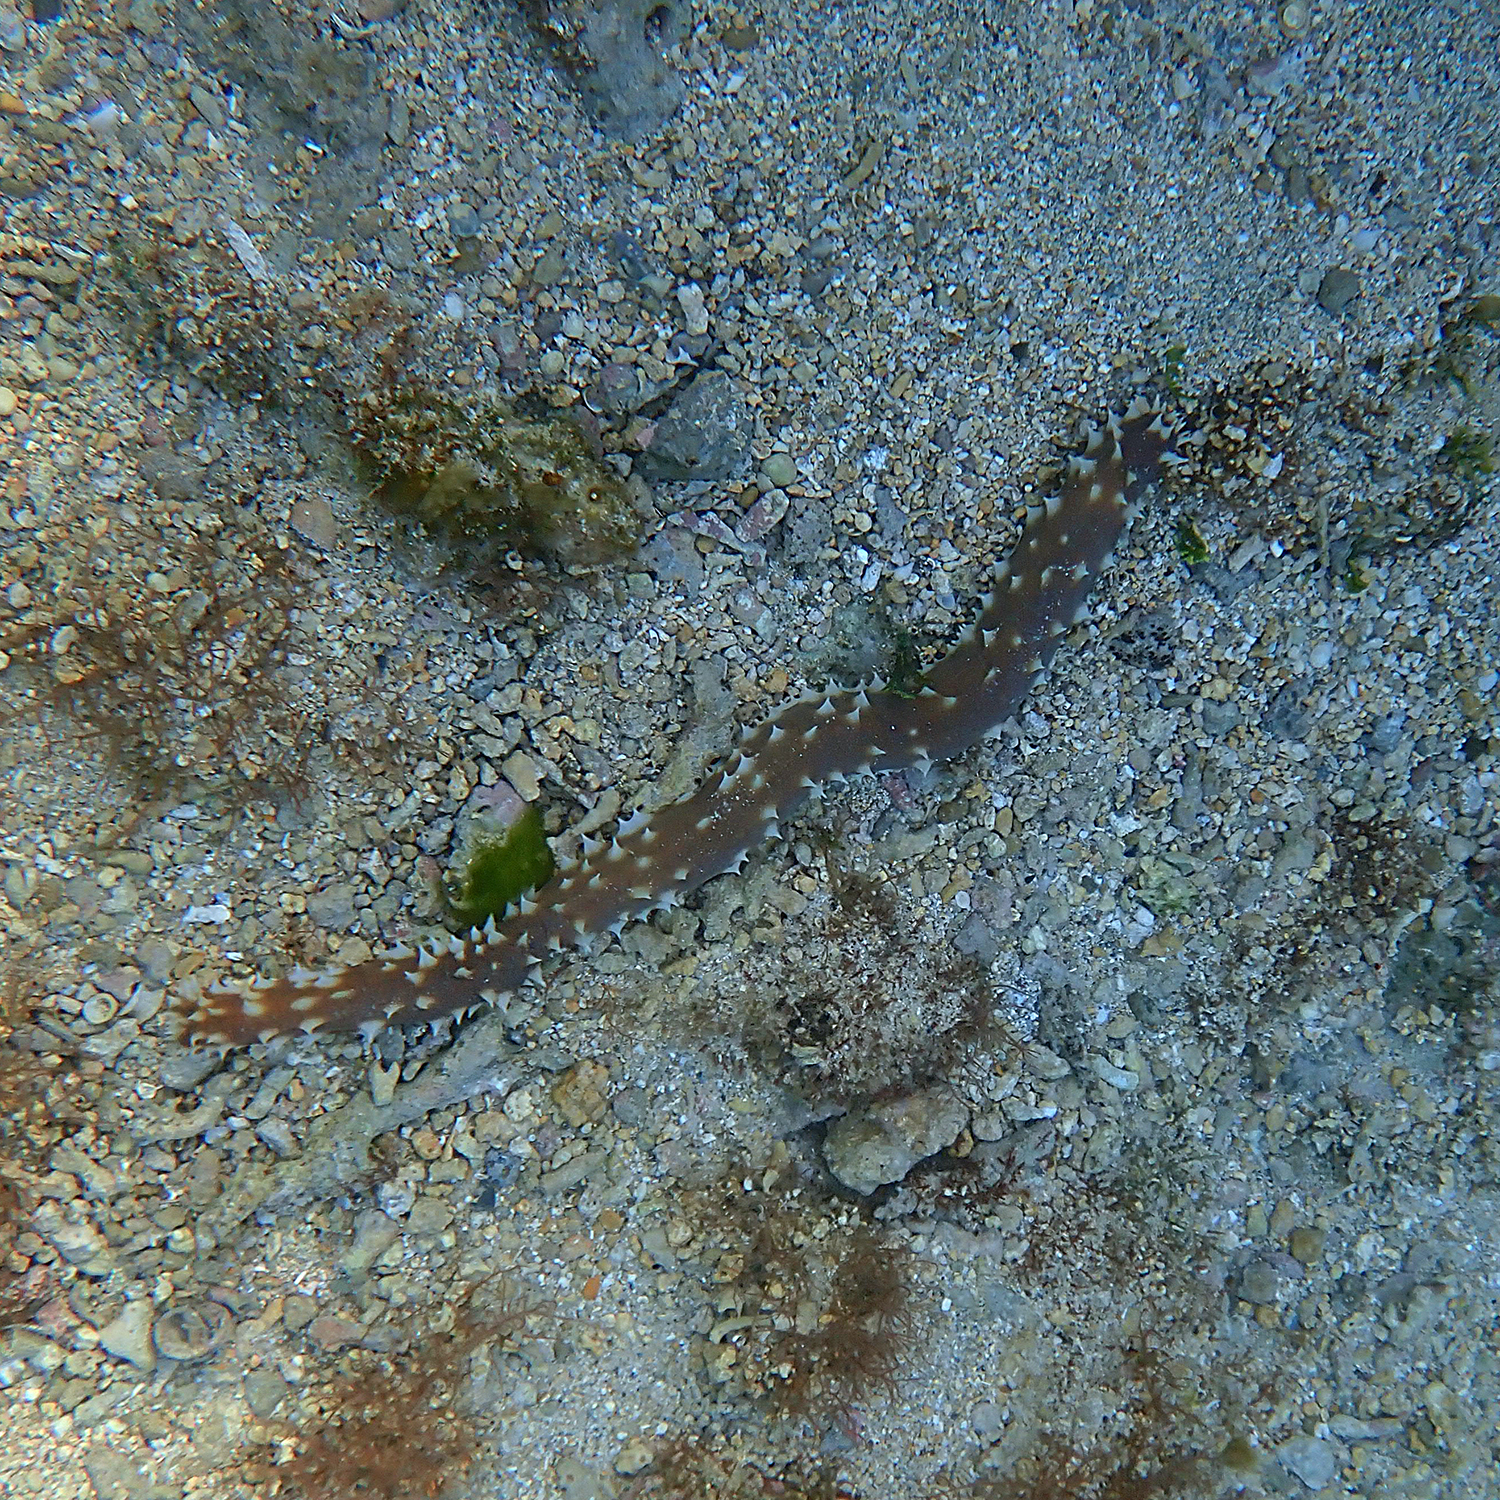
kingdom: Animalia
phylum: Echinodermata
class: Holothuroidea
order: Holothuriida
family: Holothuriidae
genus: Holothuria
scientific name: Holothuria hilla
